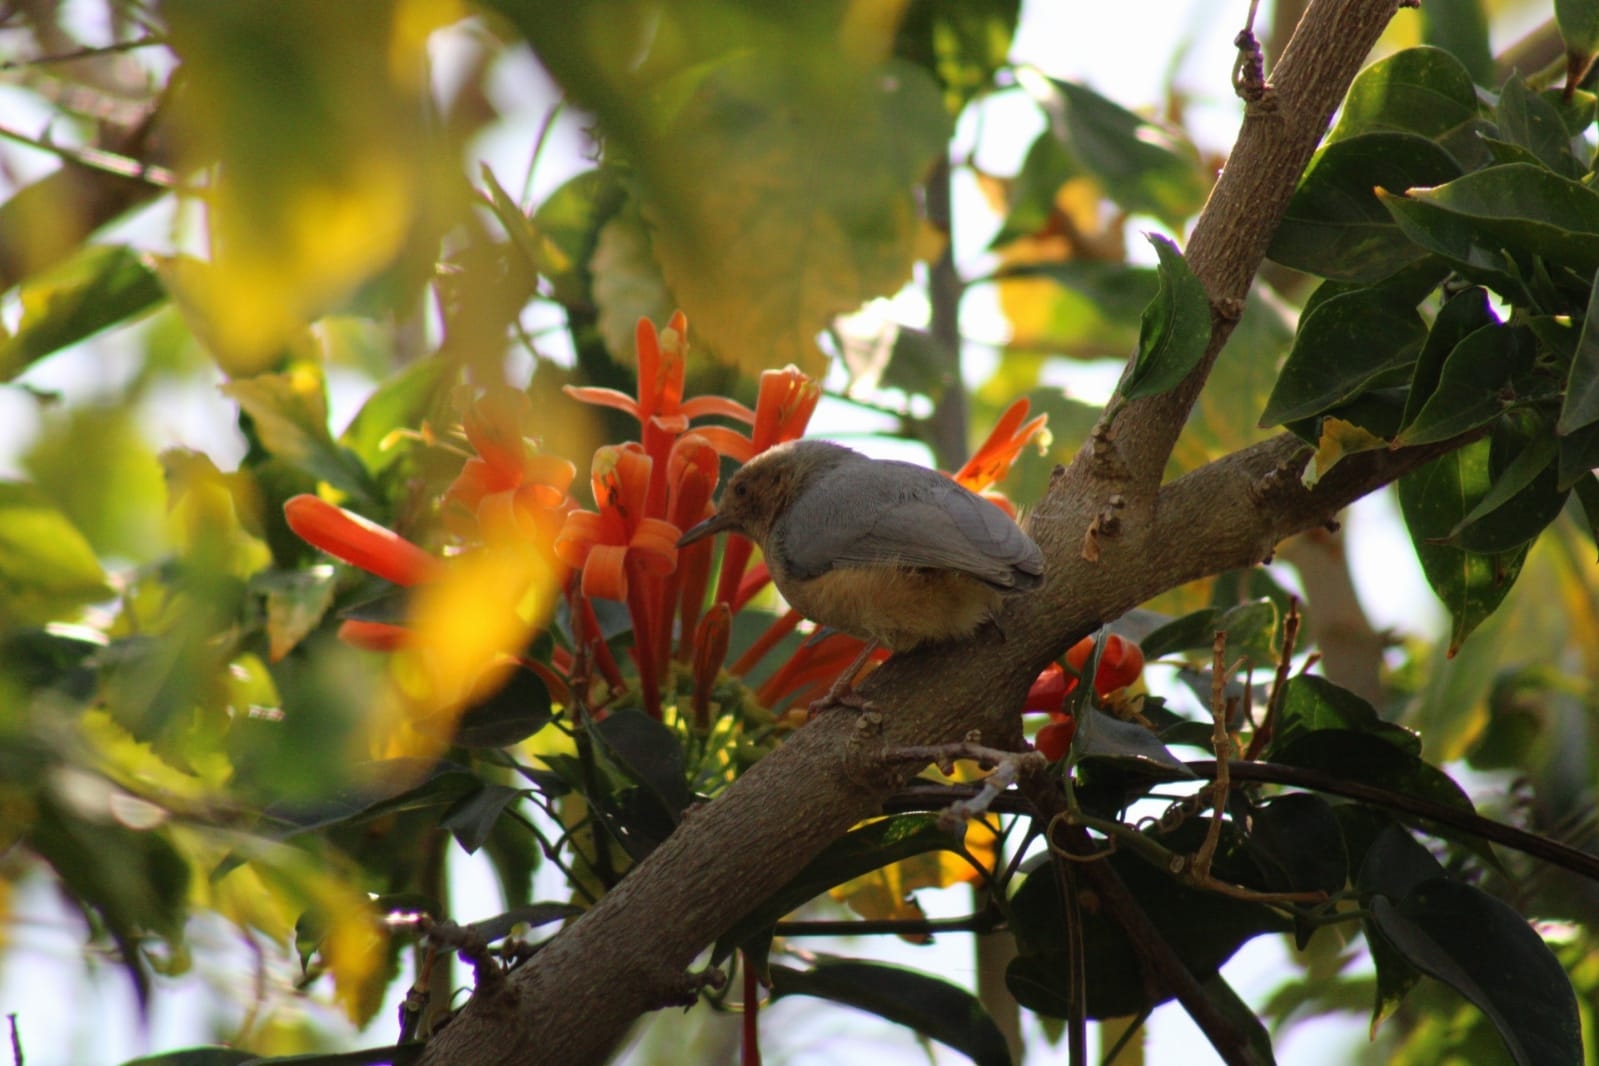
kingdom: Animalia
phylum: Chordata
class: Aves
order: Passeriformes
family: Macrosphenidae
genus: Sylvietta
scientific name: Sylvietta whytii
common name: Red-faced crombec
